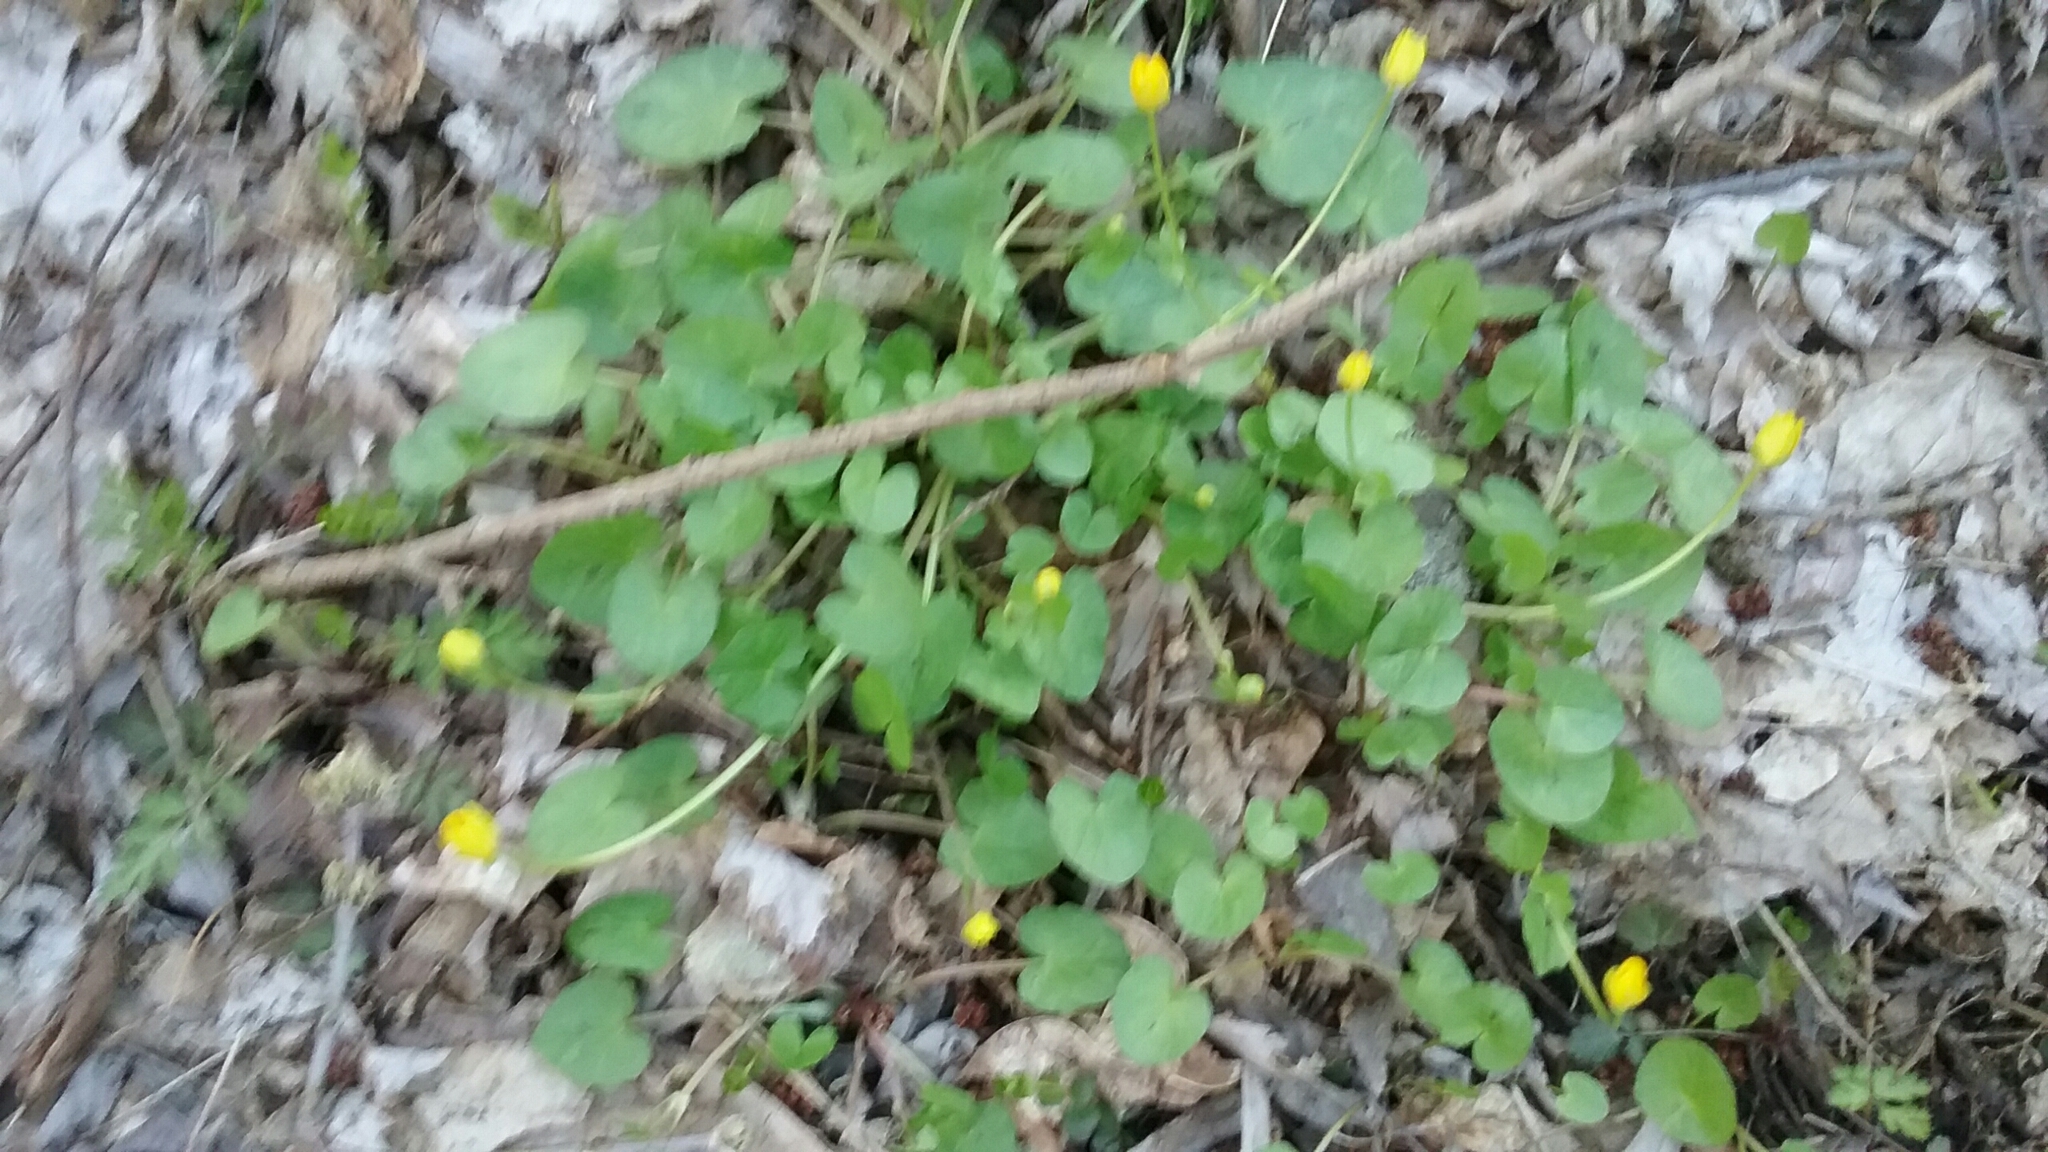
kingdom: Plantae
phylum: Tracheophyta
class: Magnoliopsida
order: Ranunculales
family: Ranunculaceae
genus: Ficaria
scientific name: Ficaria verna
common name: Lesser celandine
